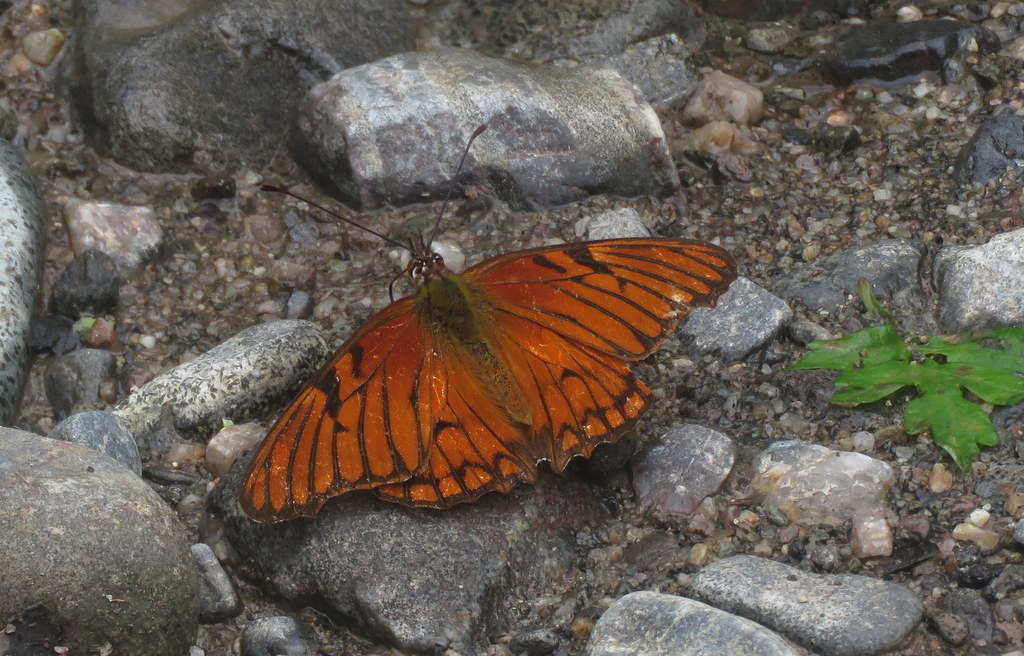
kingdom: Animalia
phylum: Arthropoda
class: Insecta
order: Lepidoptera
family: Nymphalidae
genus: Dione
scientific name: Dione glycera
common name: Andean silverspot
